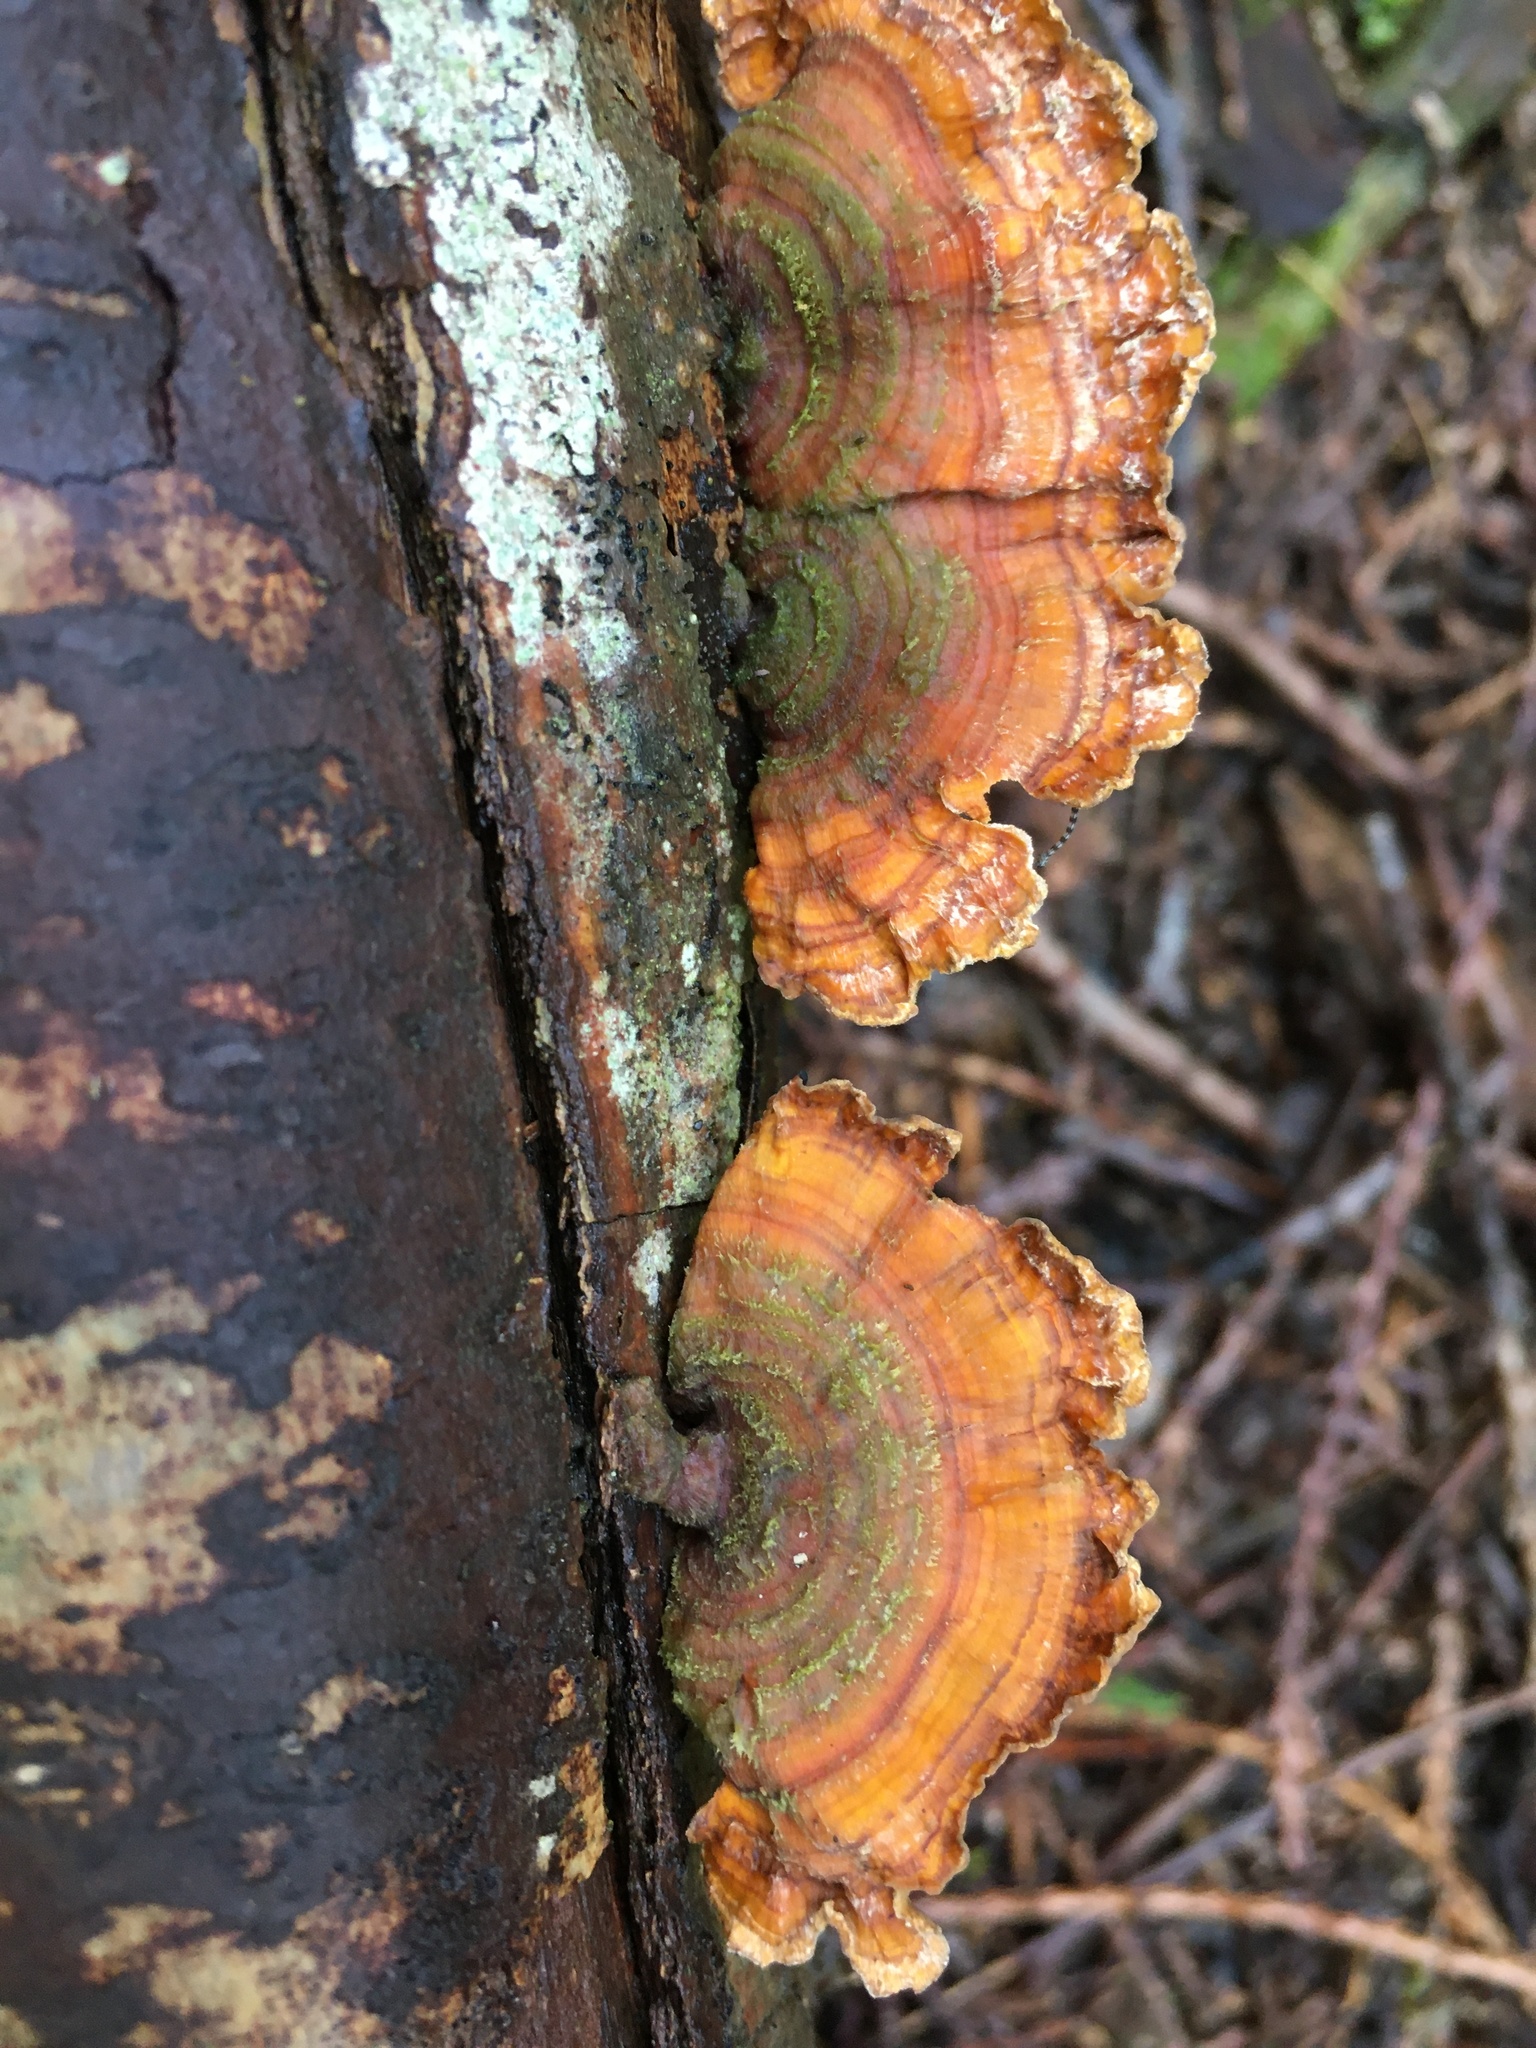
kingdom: Fungi
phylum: Basidiomycota
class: Agaricomycetes
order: Russulales
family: Stereaceae
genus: Stereum
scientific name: Stereum hirsutum
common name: Hairy curtain crust
